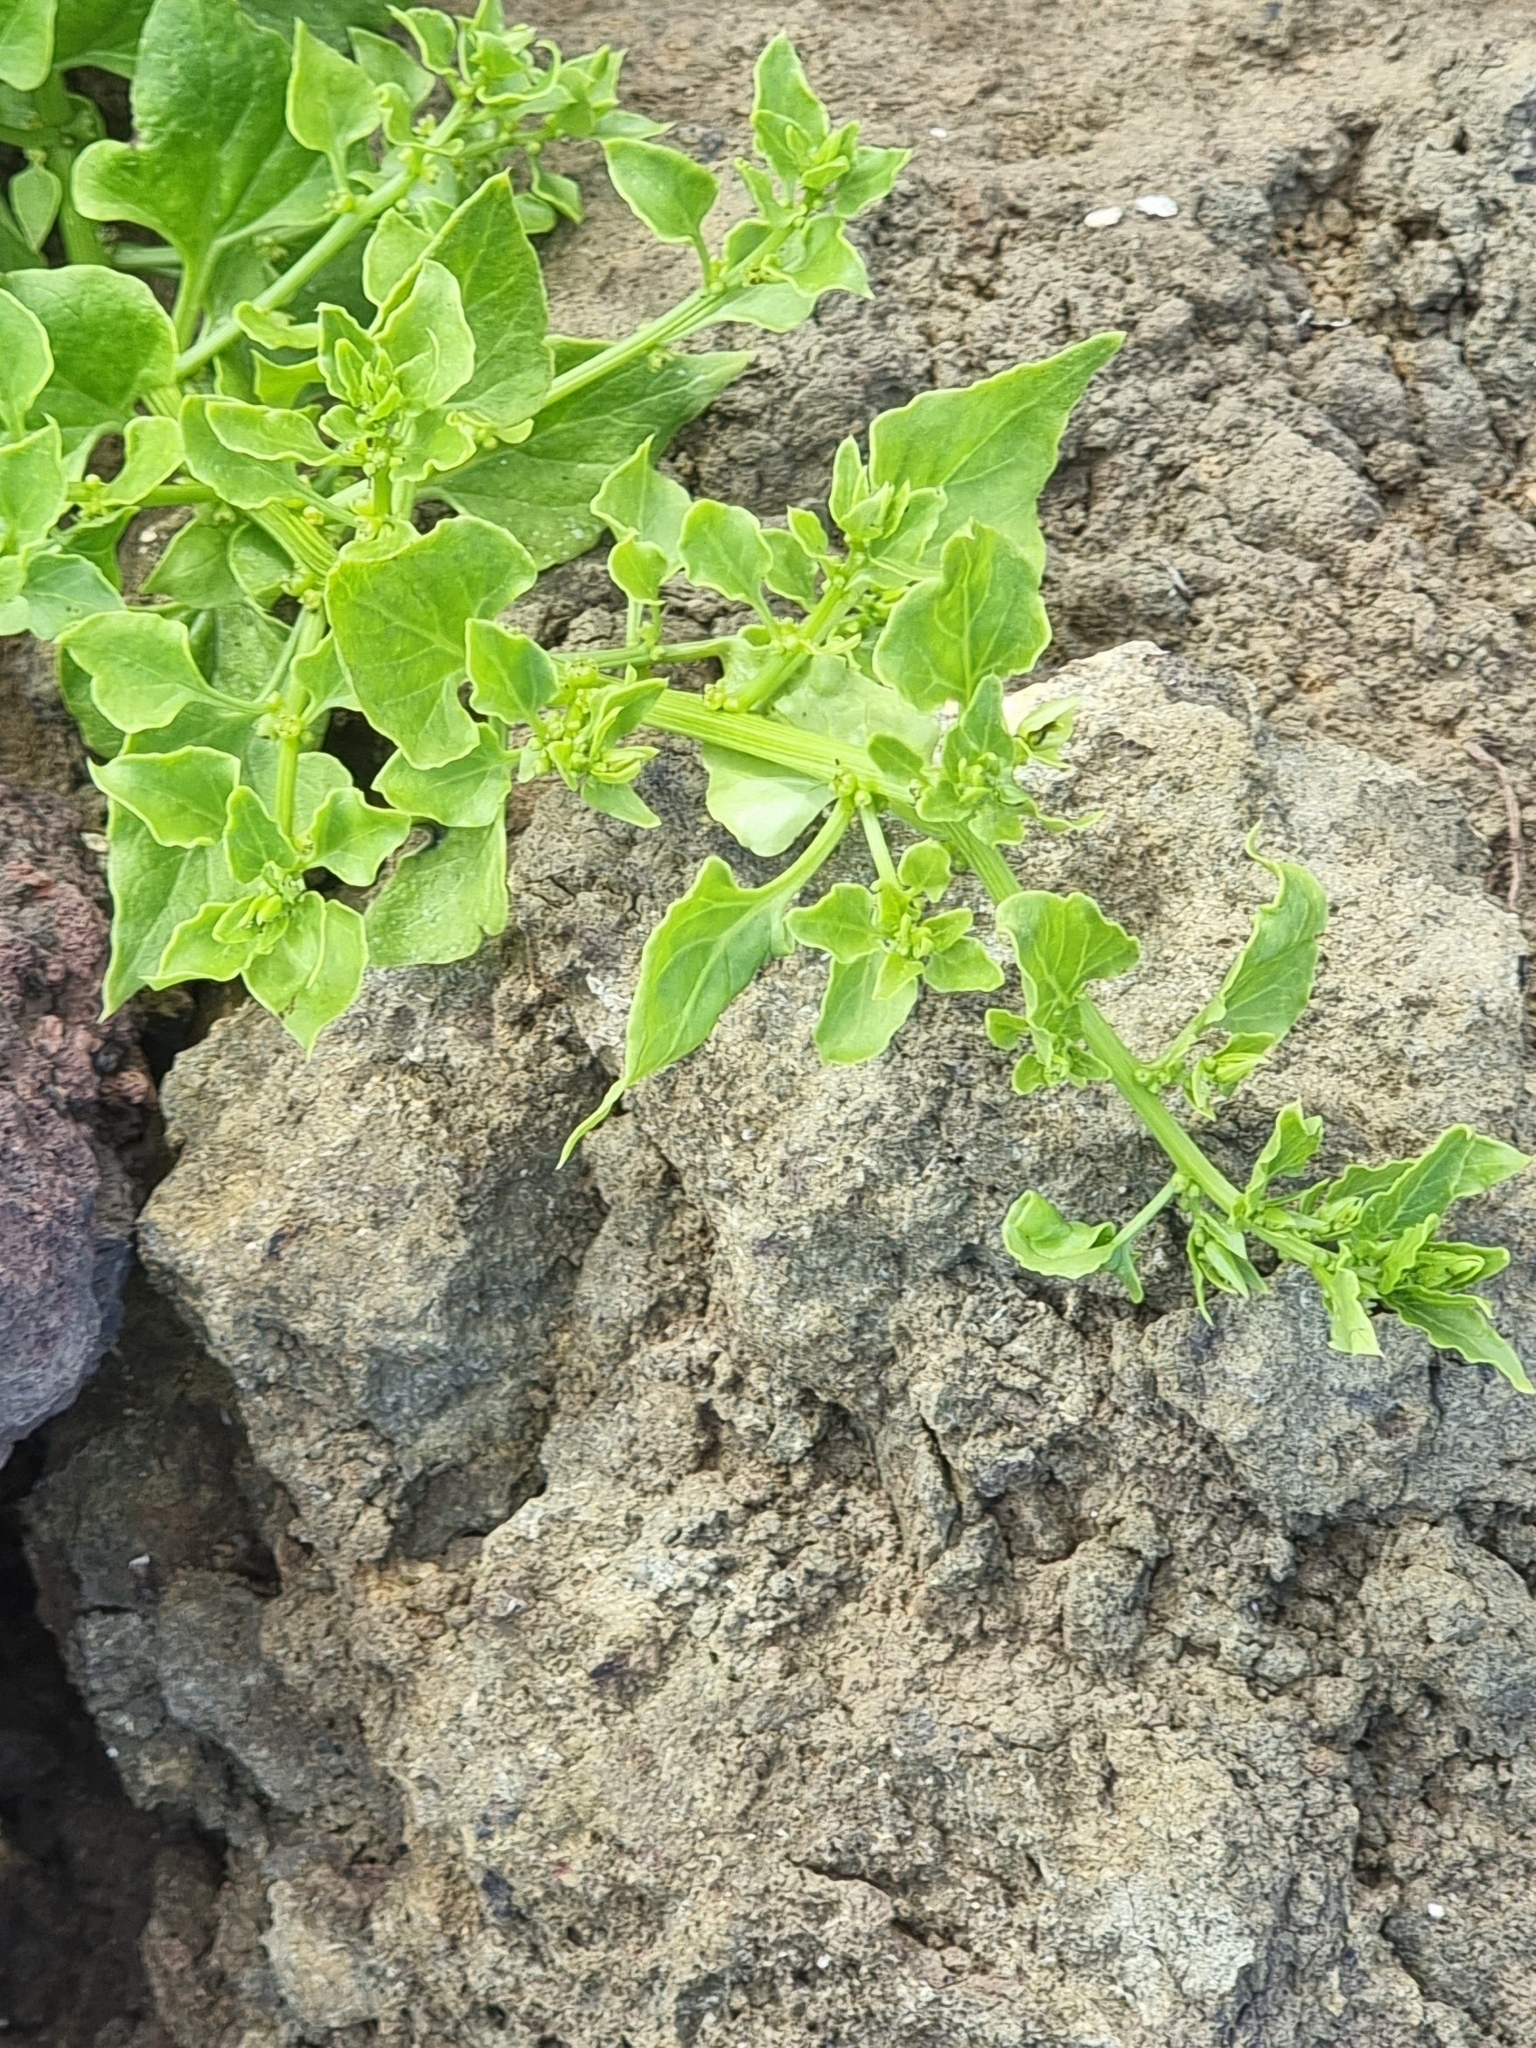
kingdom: Plantae
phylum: Tracheophyta
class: Magnoliopsida
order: Caryophyllales
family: Amaranthaceae
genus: Patellifolia
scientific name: Patellifolia procumbens
